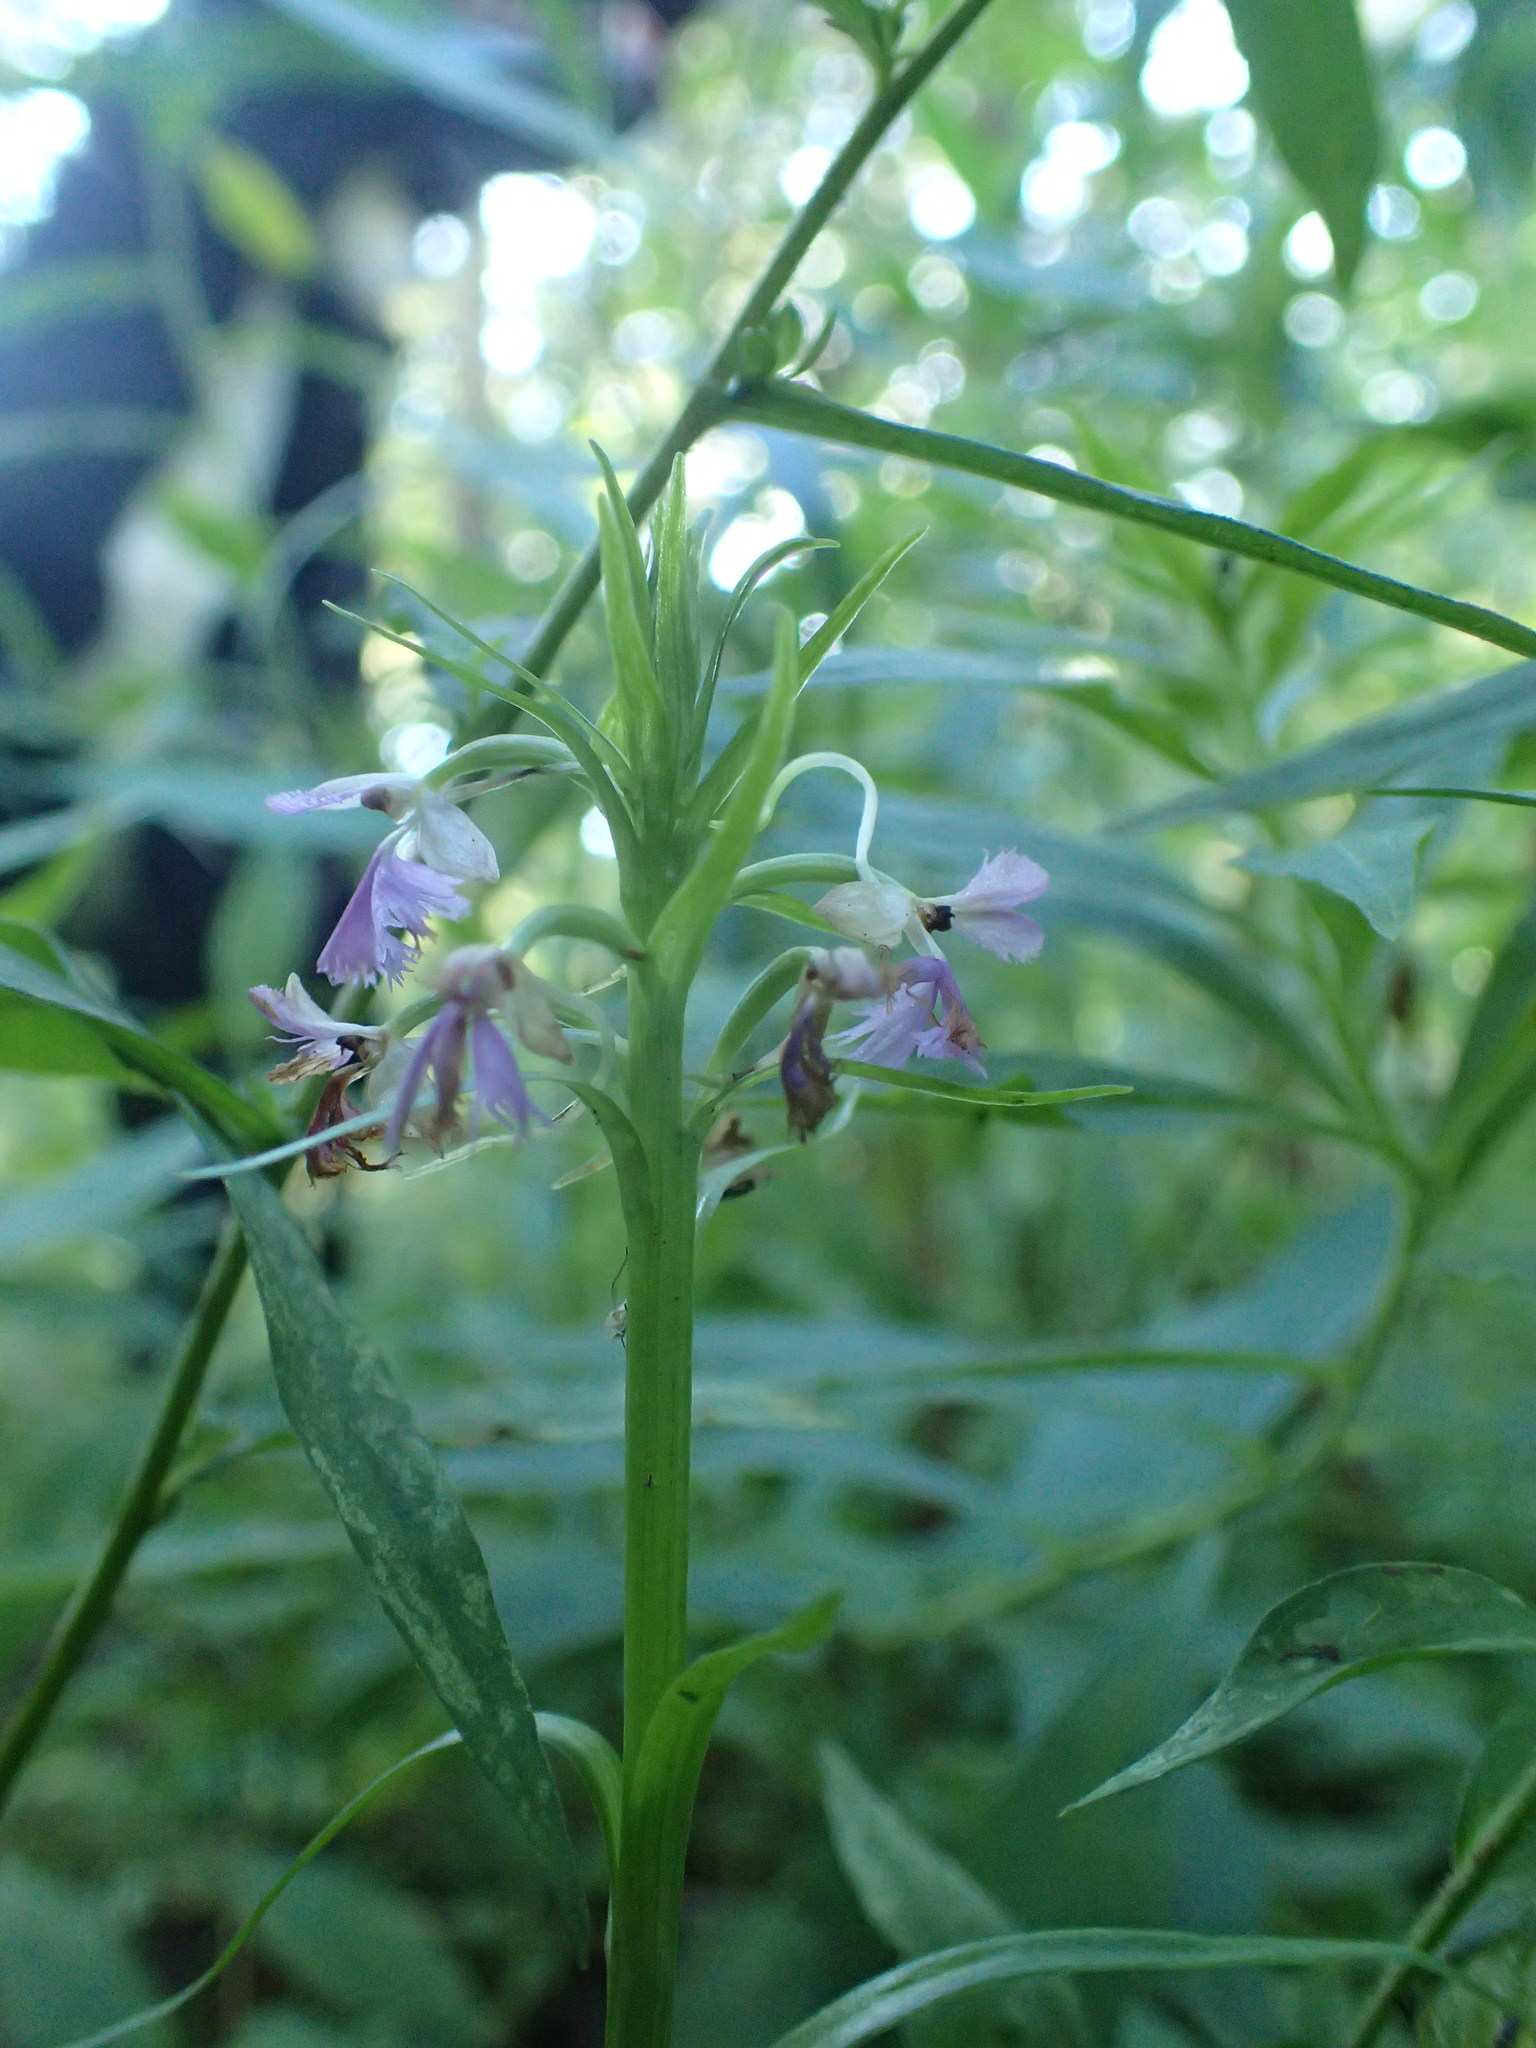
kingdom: Plantae
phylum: Tracheophyta
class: Liliopsida
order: Asparagales
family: Orchidaceae
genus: Platanthera
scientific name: Platanthera psycodes
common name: Lesser purple fringed orchid
